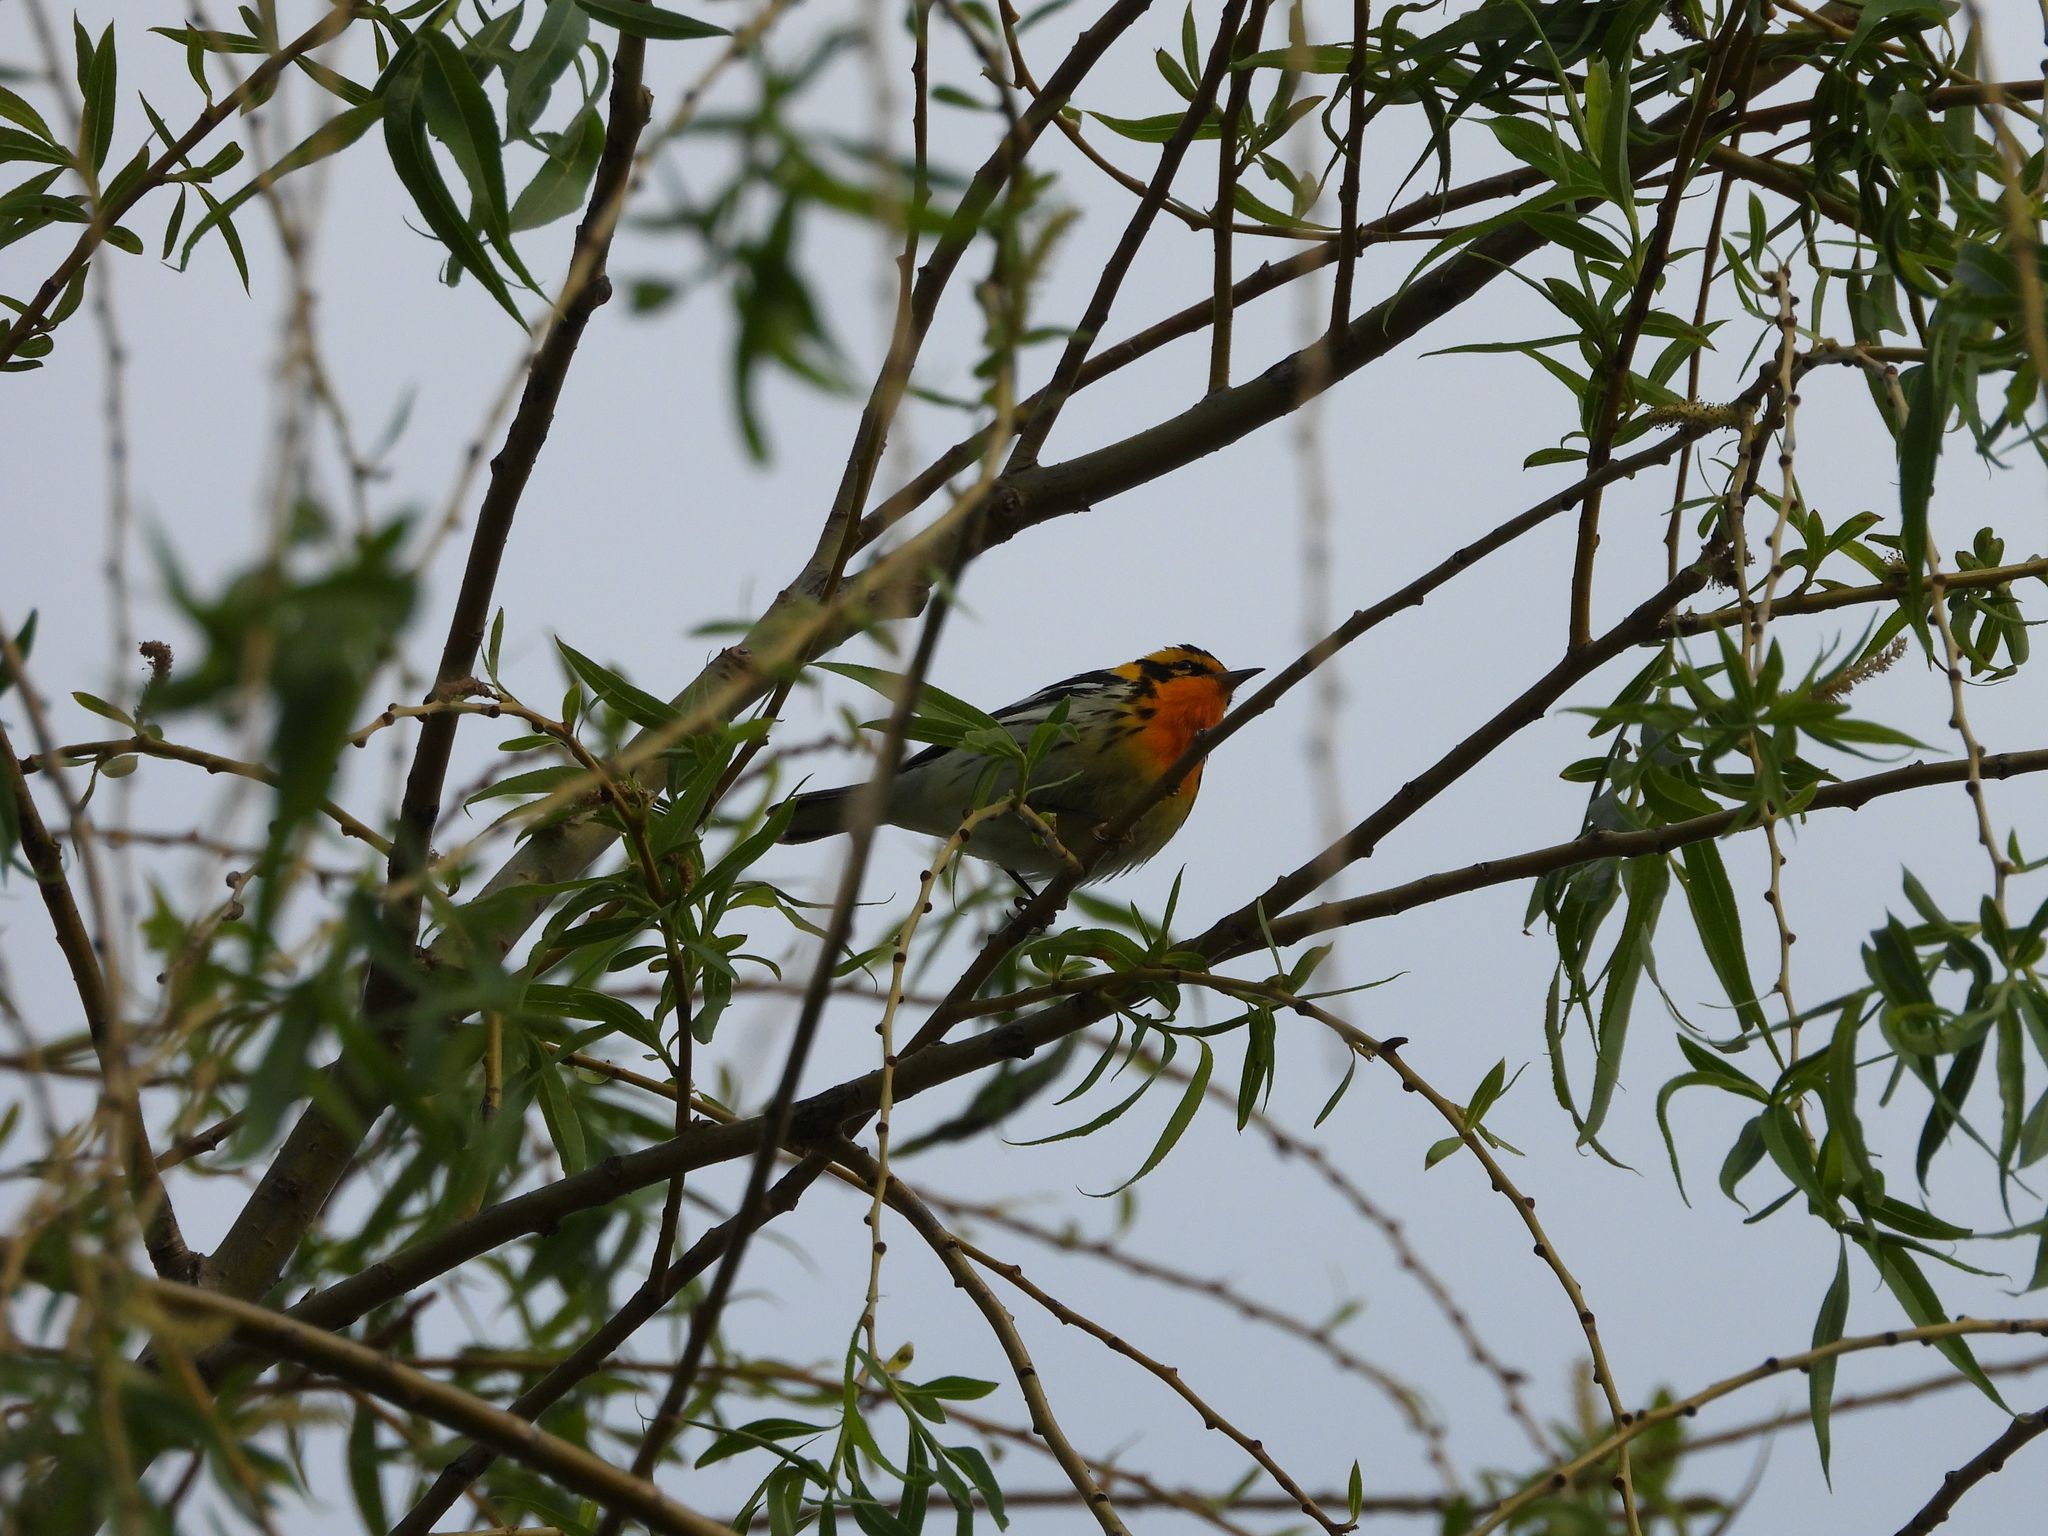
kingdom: Animalia
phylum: Chordata
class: Aves
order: Passeriformes
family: Parulidae
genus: Setophaga
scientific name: Setophaga fusca
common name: Blackburnian warbler
